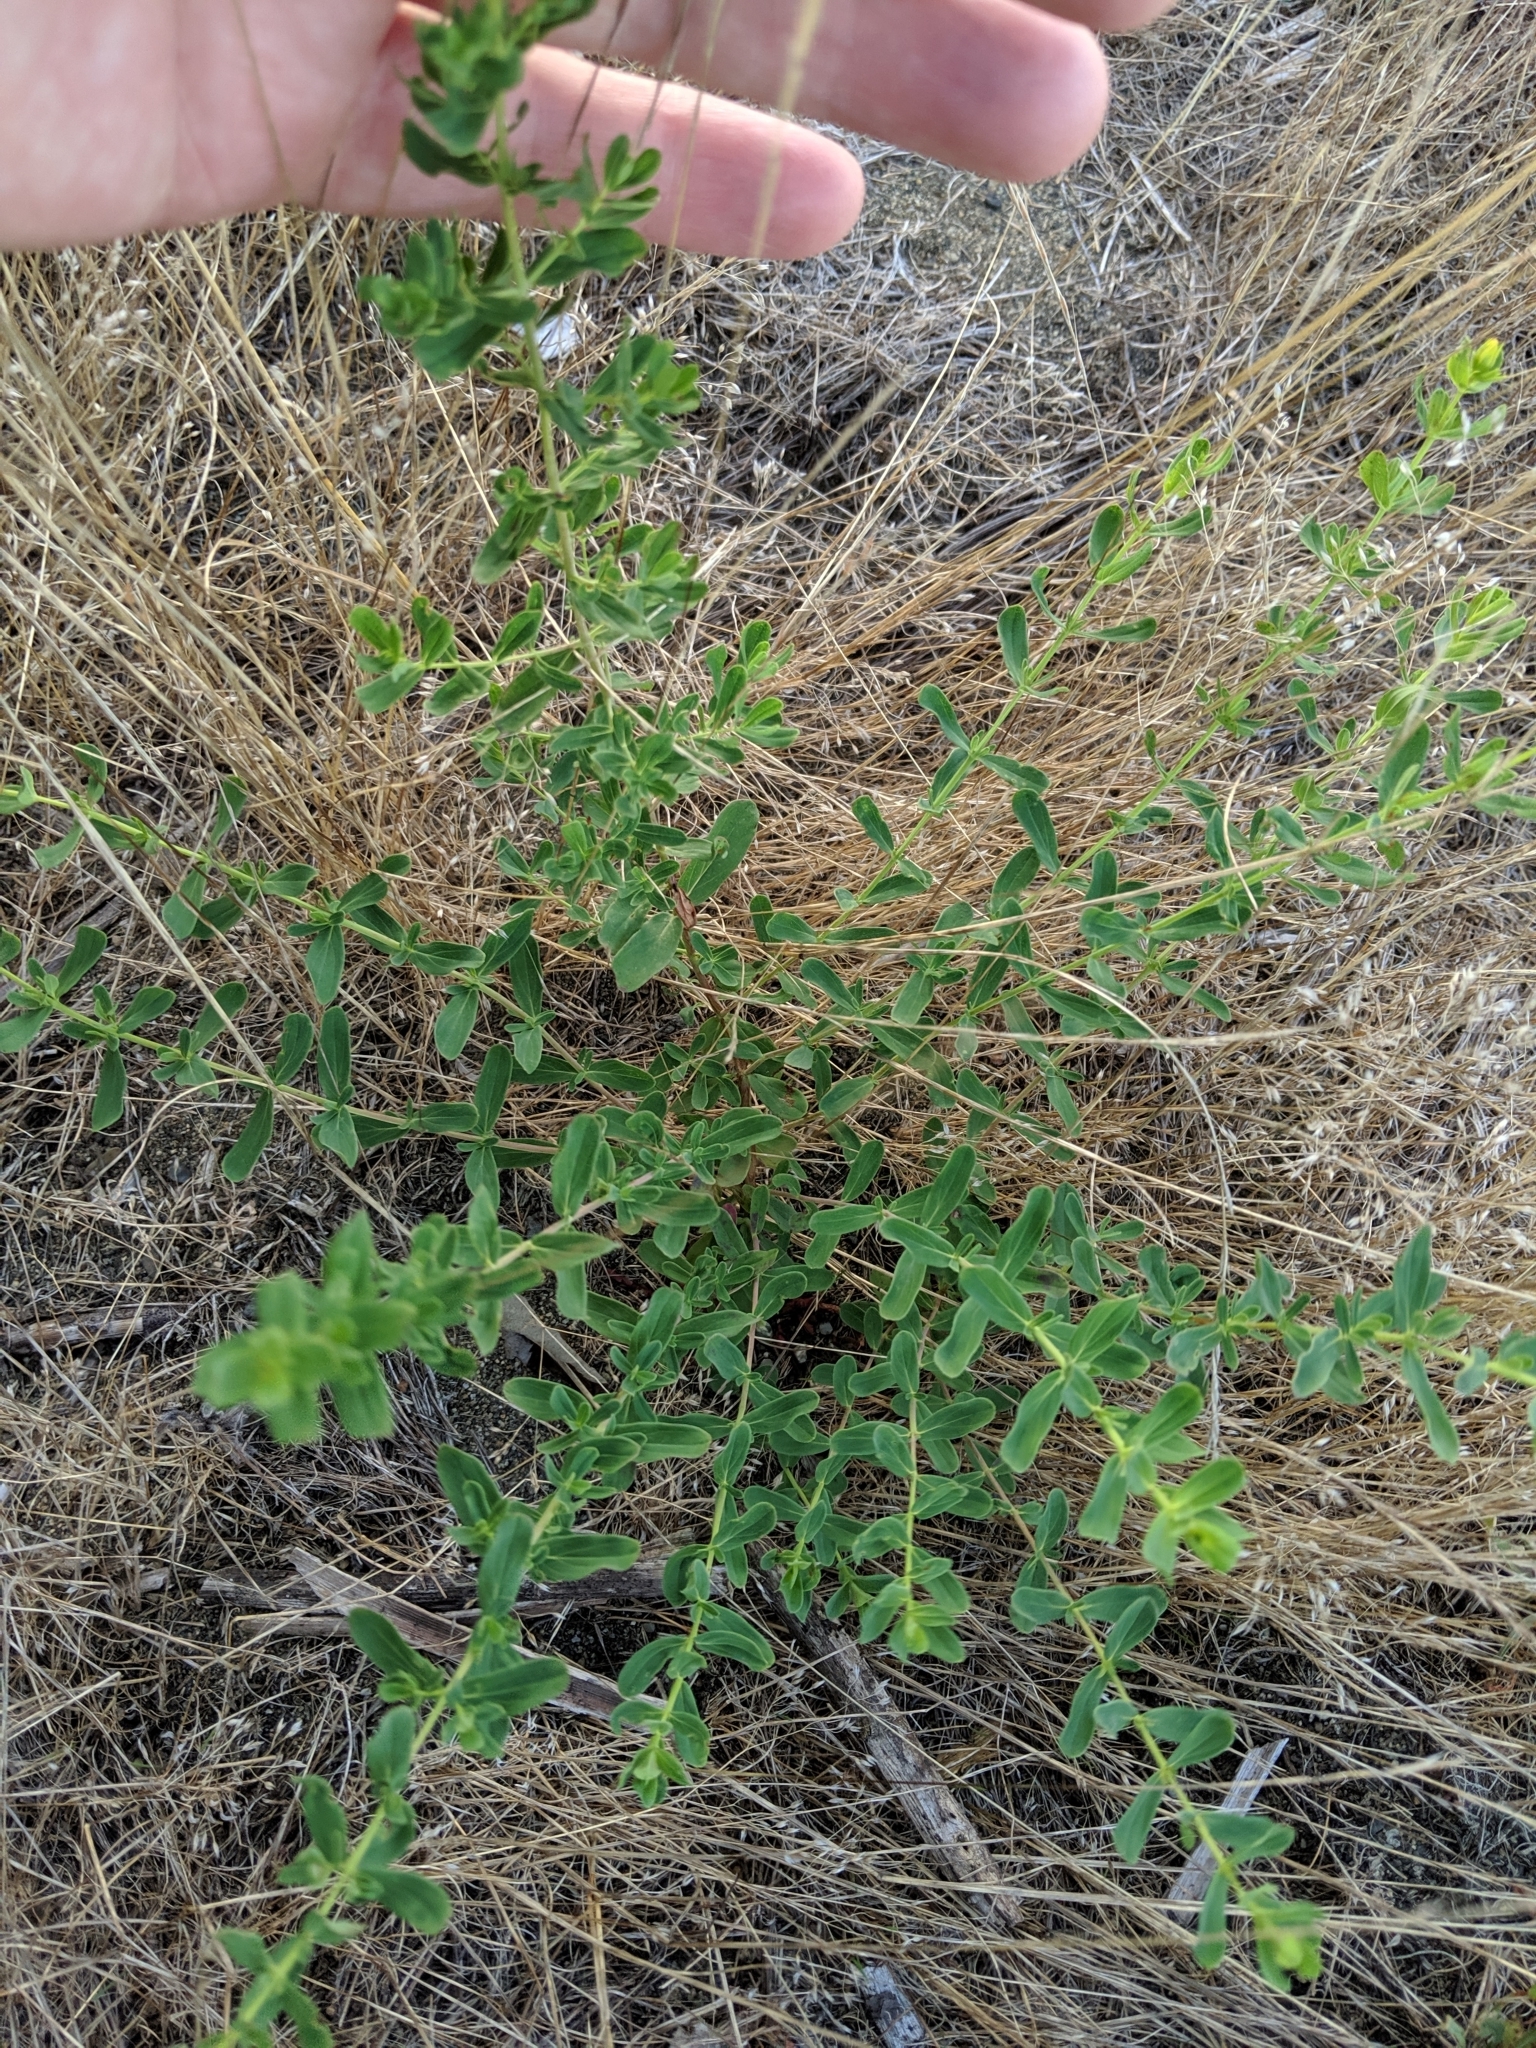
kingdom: Plantae
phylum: Tracheophyta
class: Magnoliopsida
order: Malpighiales
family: Hypericaceae
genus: Hypericum
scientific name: Hypericum perforatum
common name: Common st. johnswort
